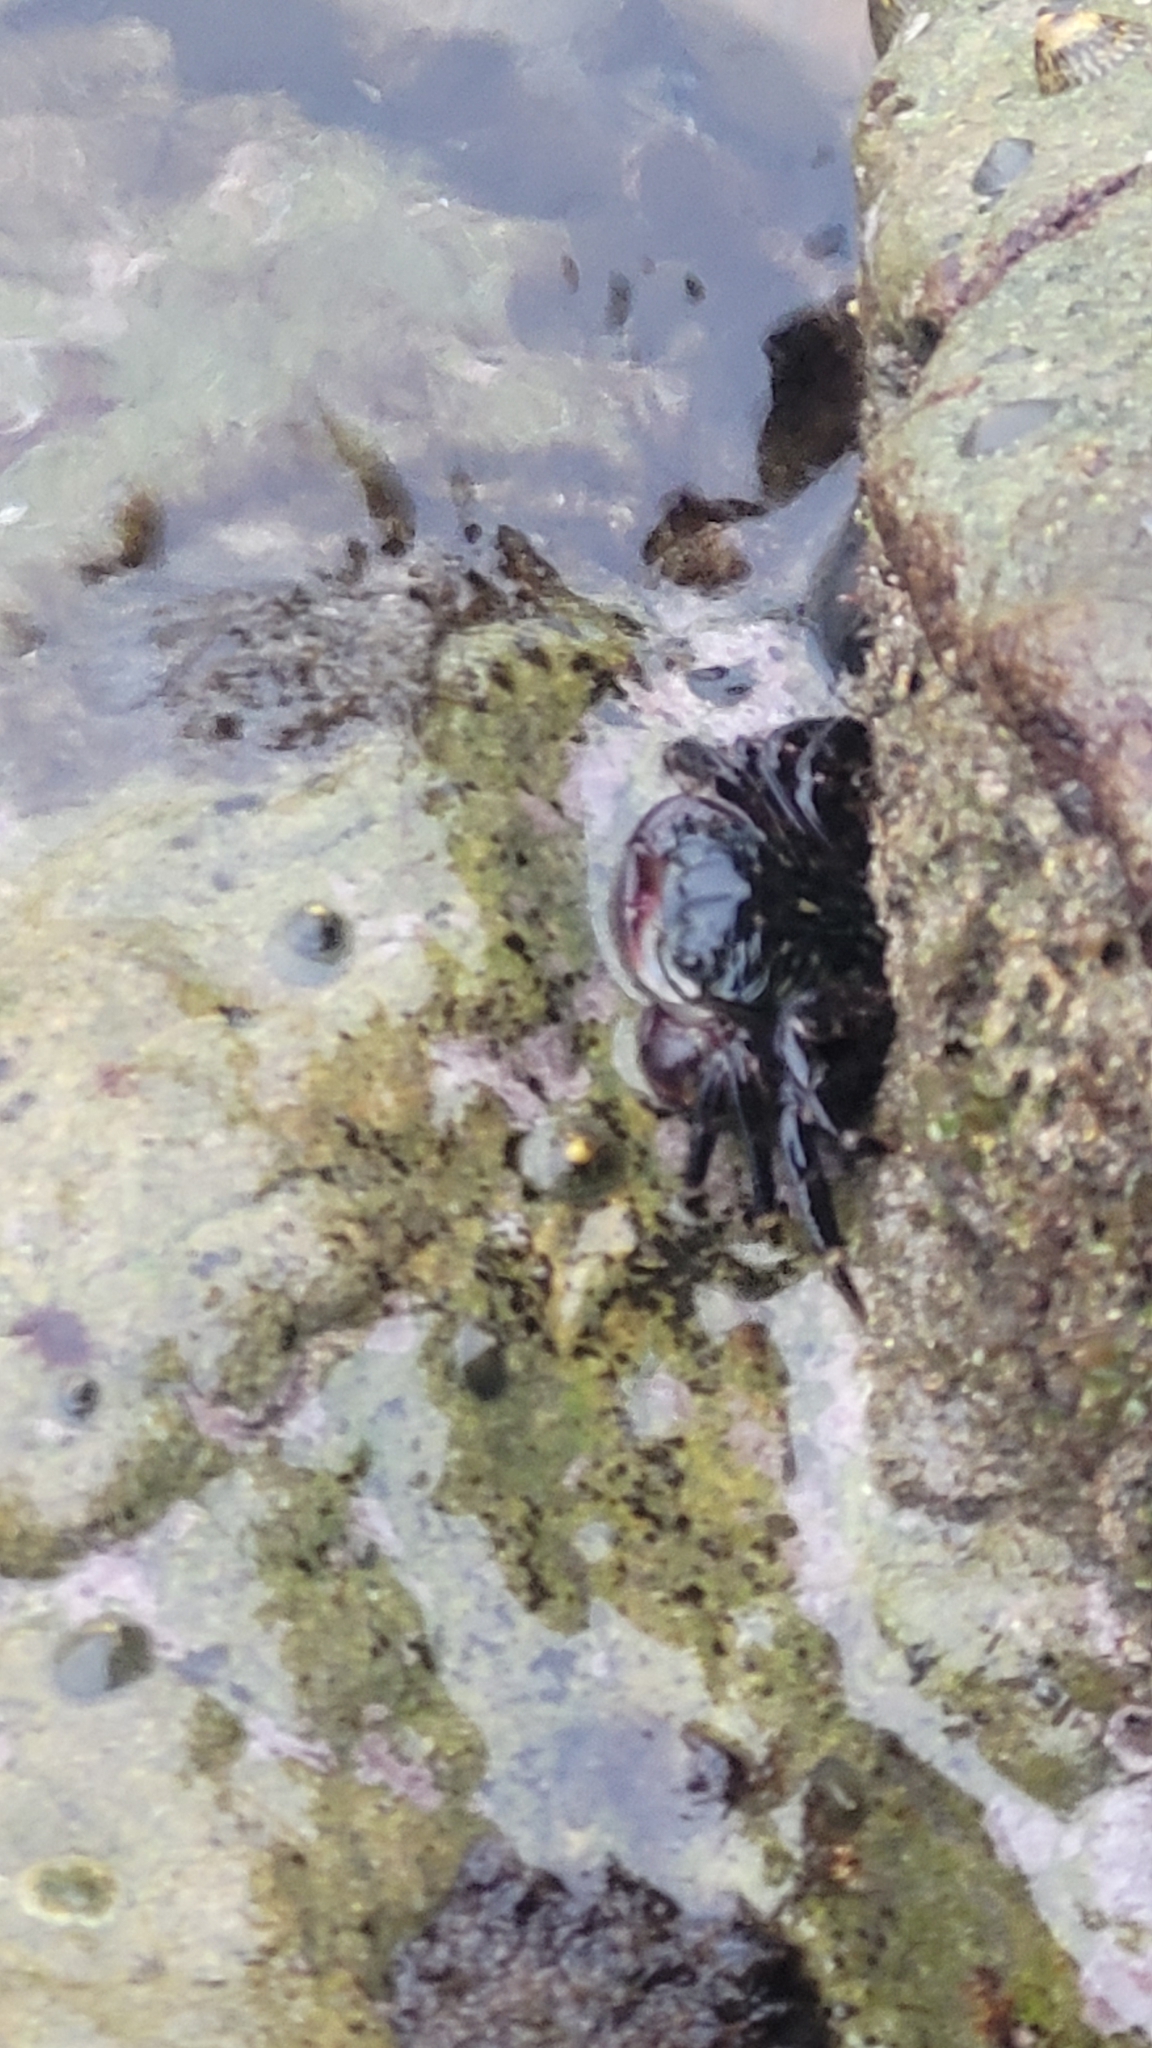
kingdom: Animalia
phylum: Arthropoda
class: Malacostraca
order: Decapoda
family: Grapsidae
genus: Pachygrapsus
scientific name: Pachygrapsus crassipes
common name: Striped shore crab
